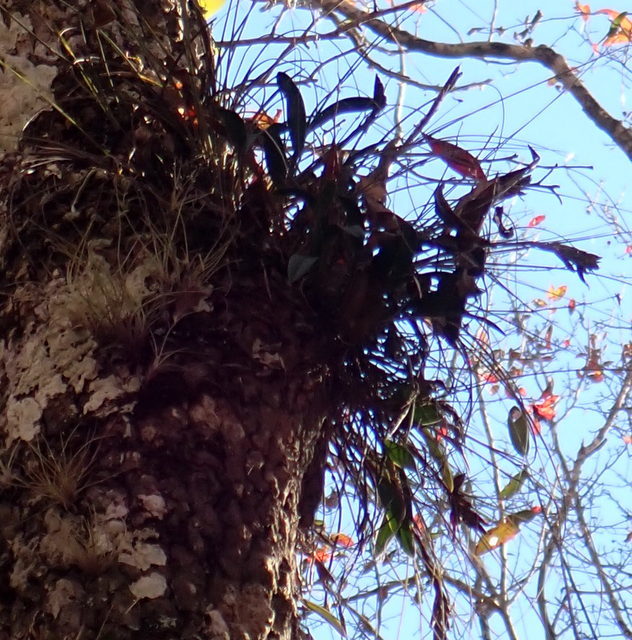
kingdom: Plantae
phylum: Tracheophyta
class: Liliopsida
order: Asparagales
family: Orchidaceae
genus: Epidendrum
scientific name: Epidendrum conopseum
